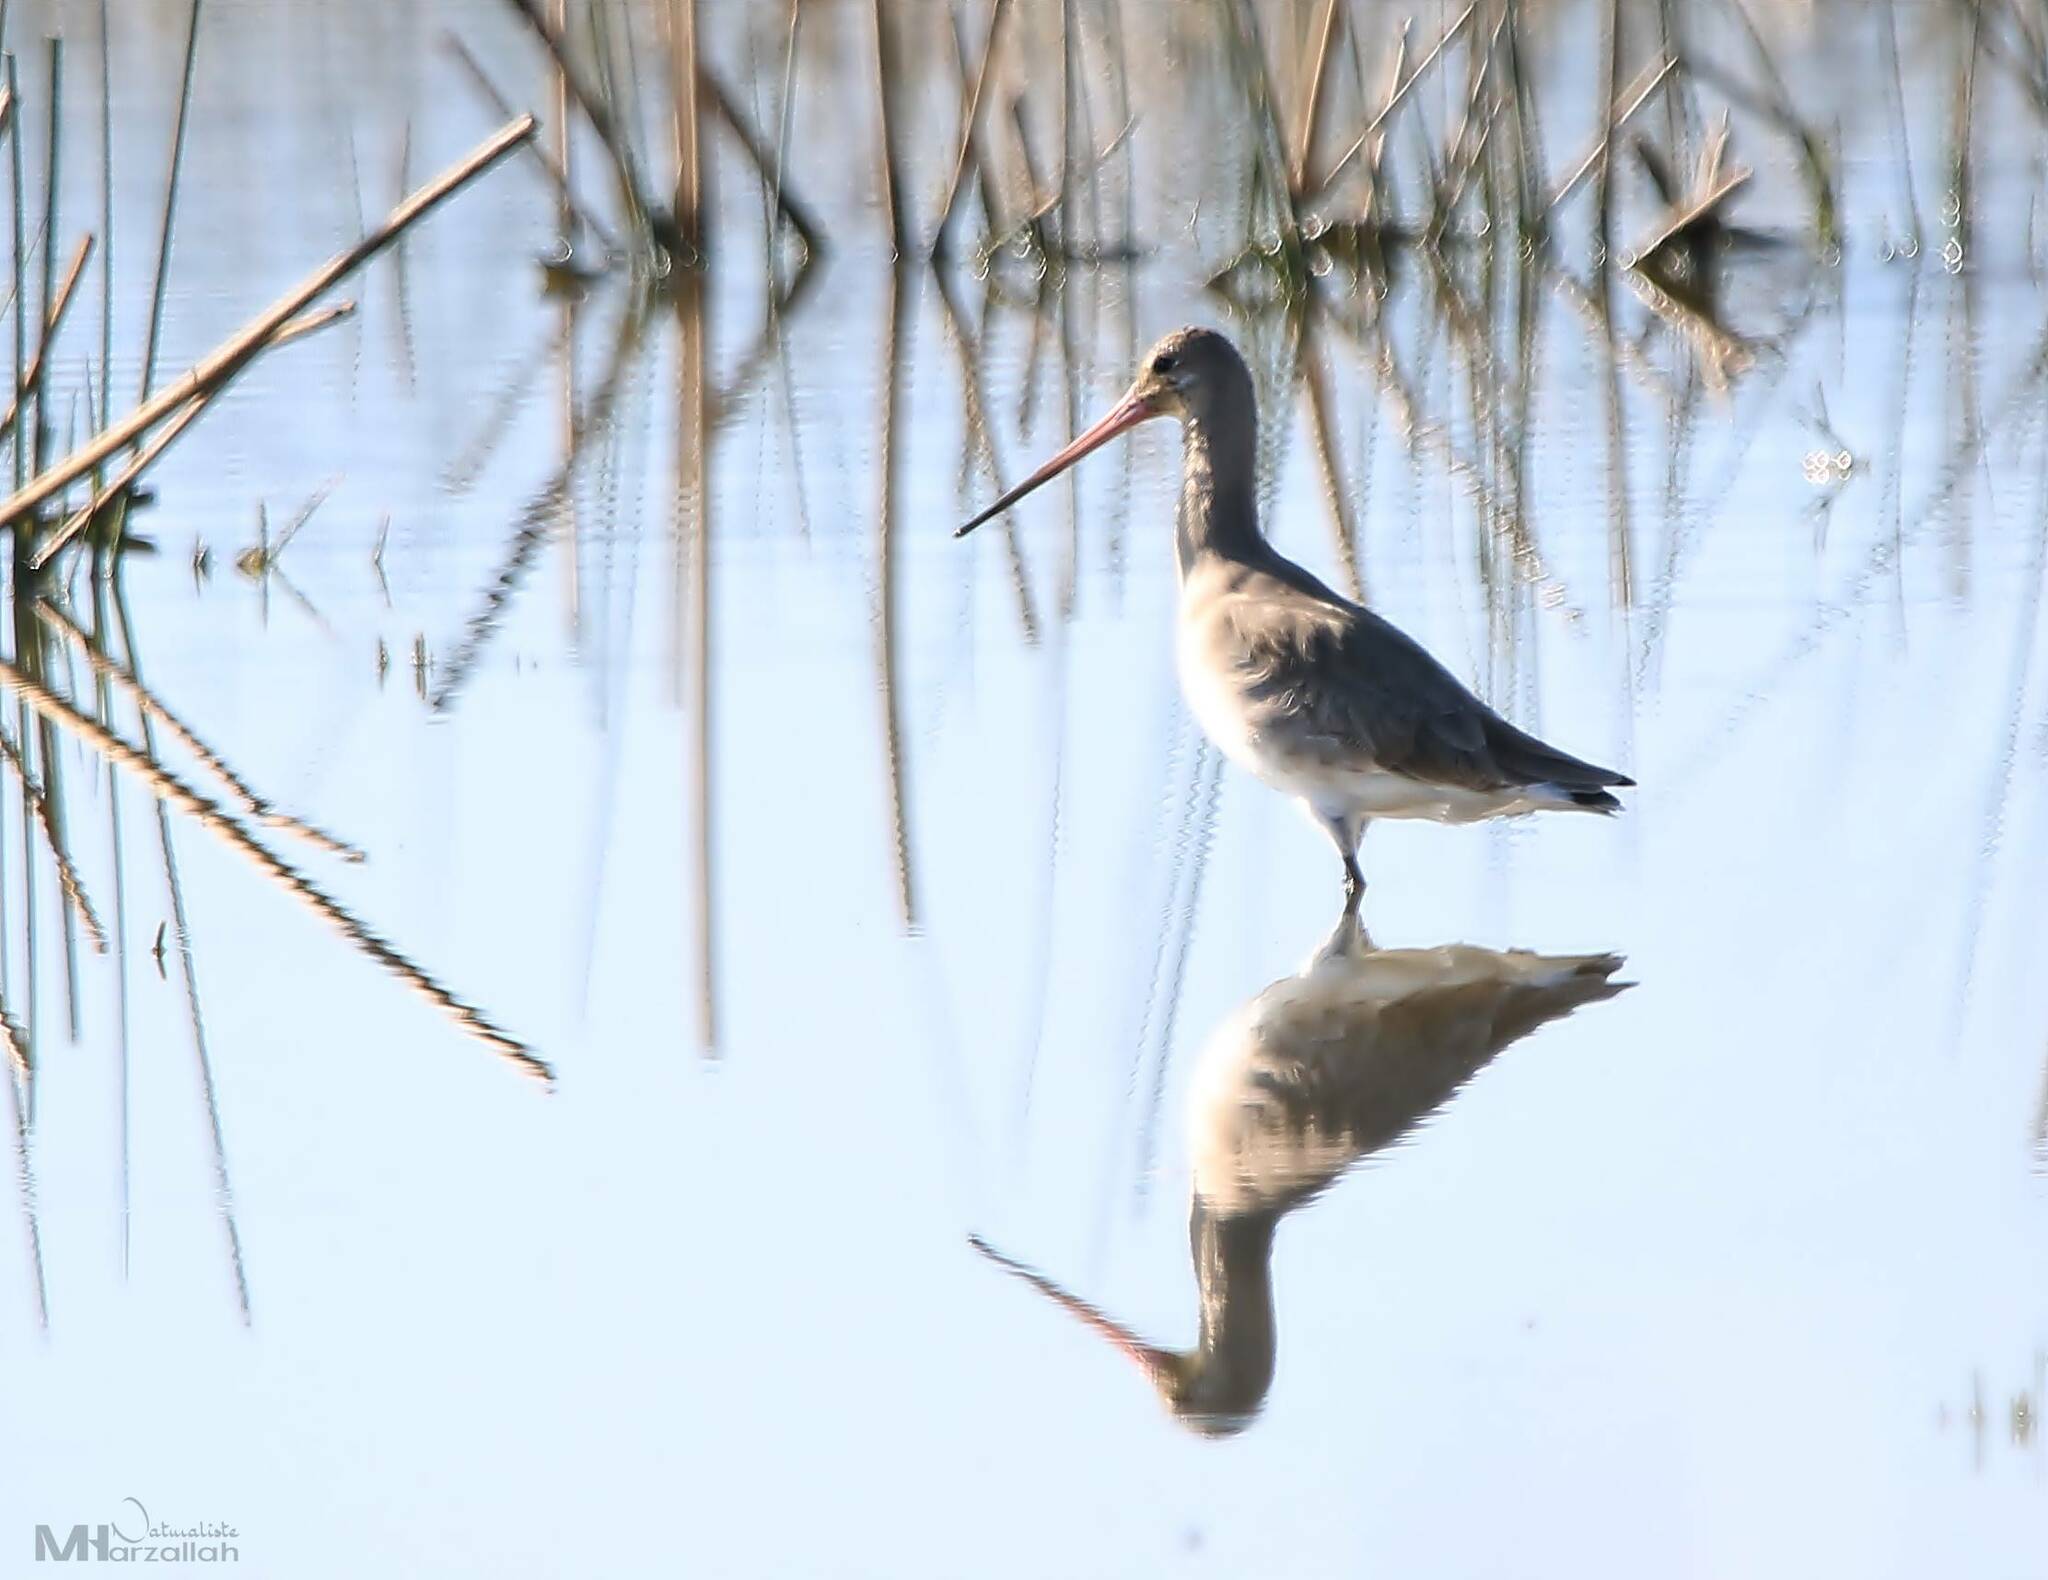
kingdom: Animalia
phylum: Chordata
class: Aves
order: Charadriiformes
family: Scolopacidae
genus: Limosa
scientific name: Limosa limosa
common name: Black-tailed godwit
